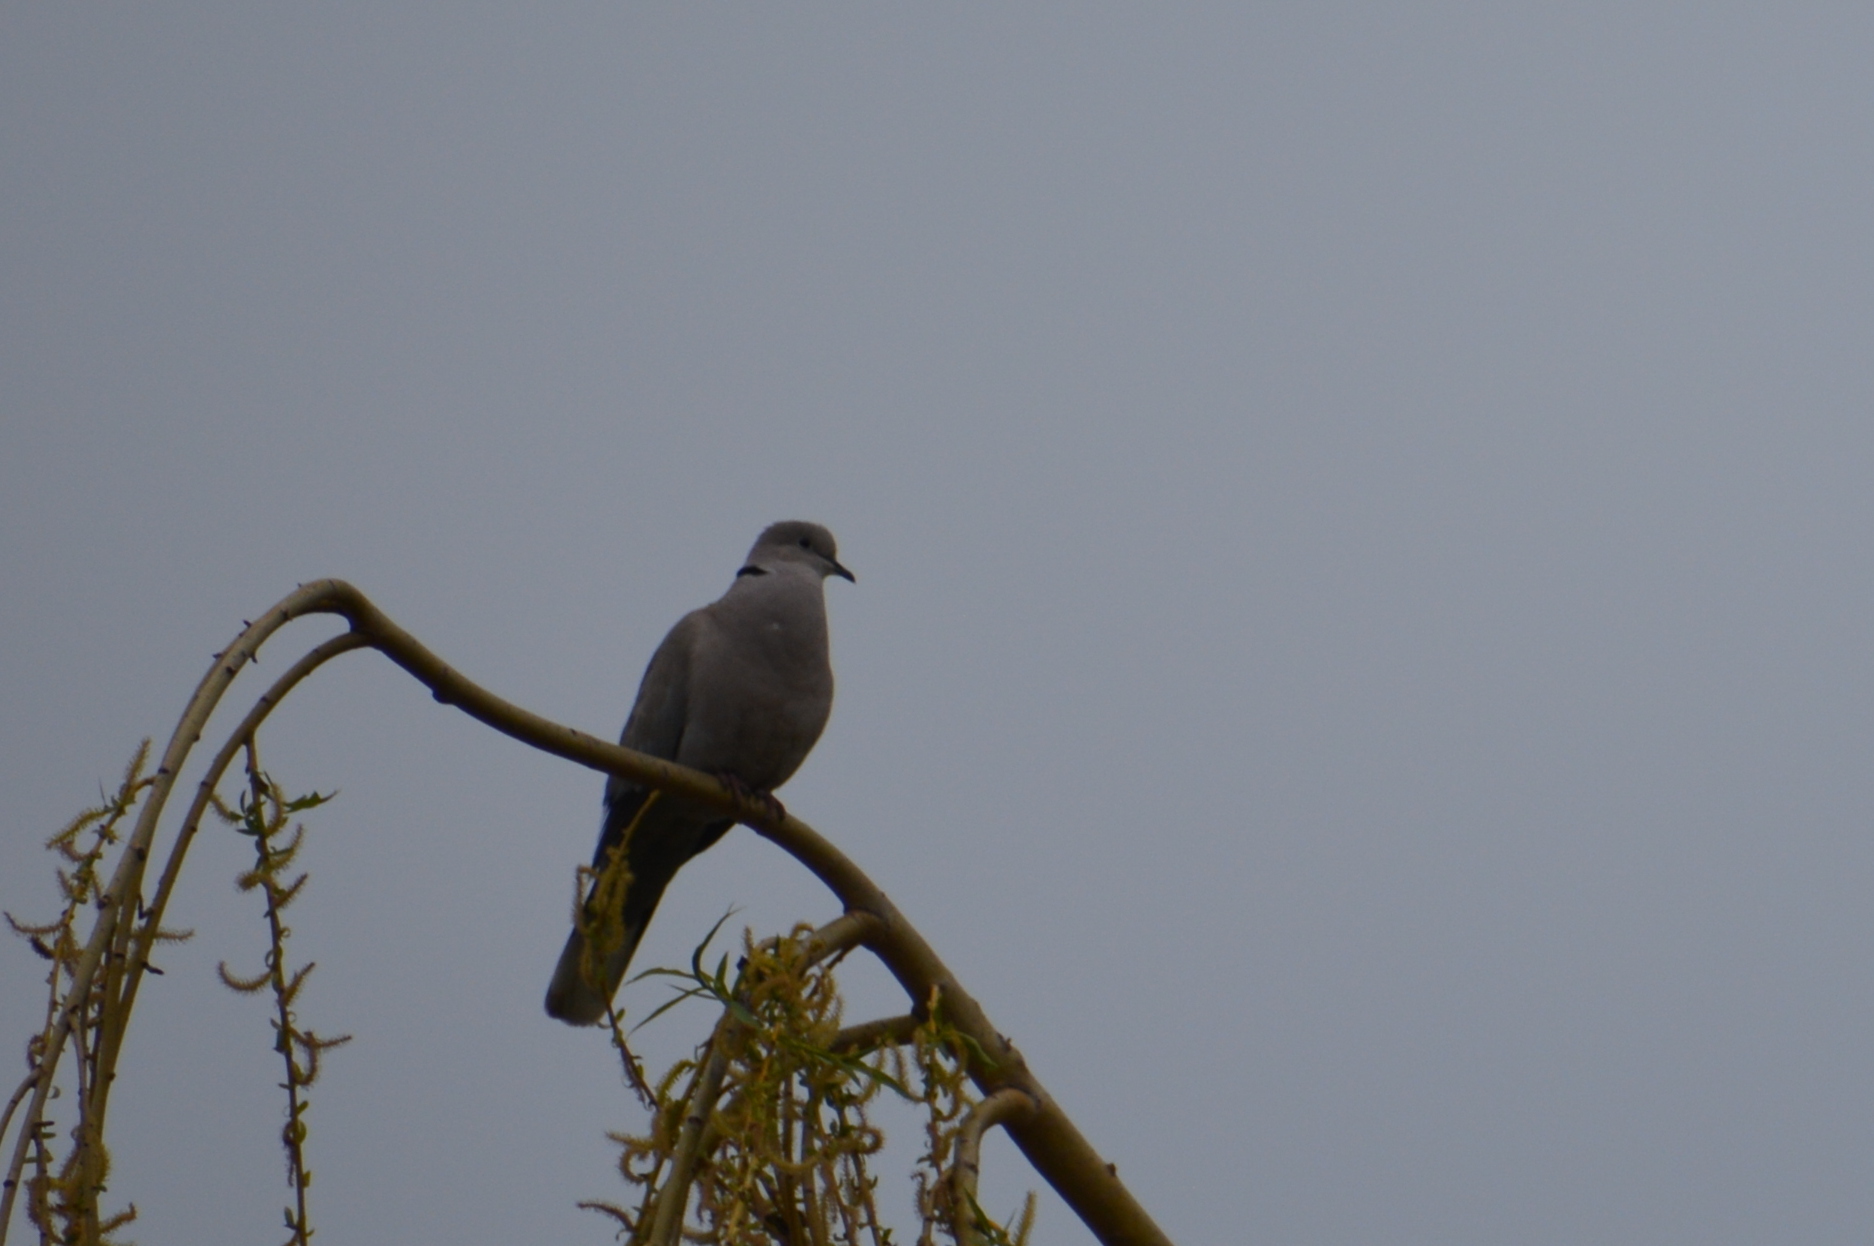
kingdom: Animalia
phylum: Chordata
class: Aves
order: Columbiformes
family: Columbidae
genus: Streptopelia
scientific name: Streptopelia decaocto
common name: Eurasian collared dove
